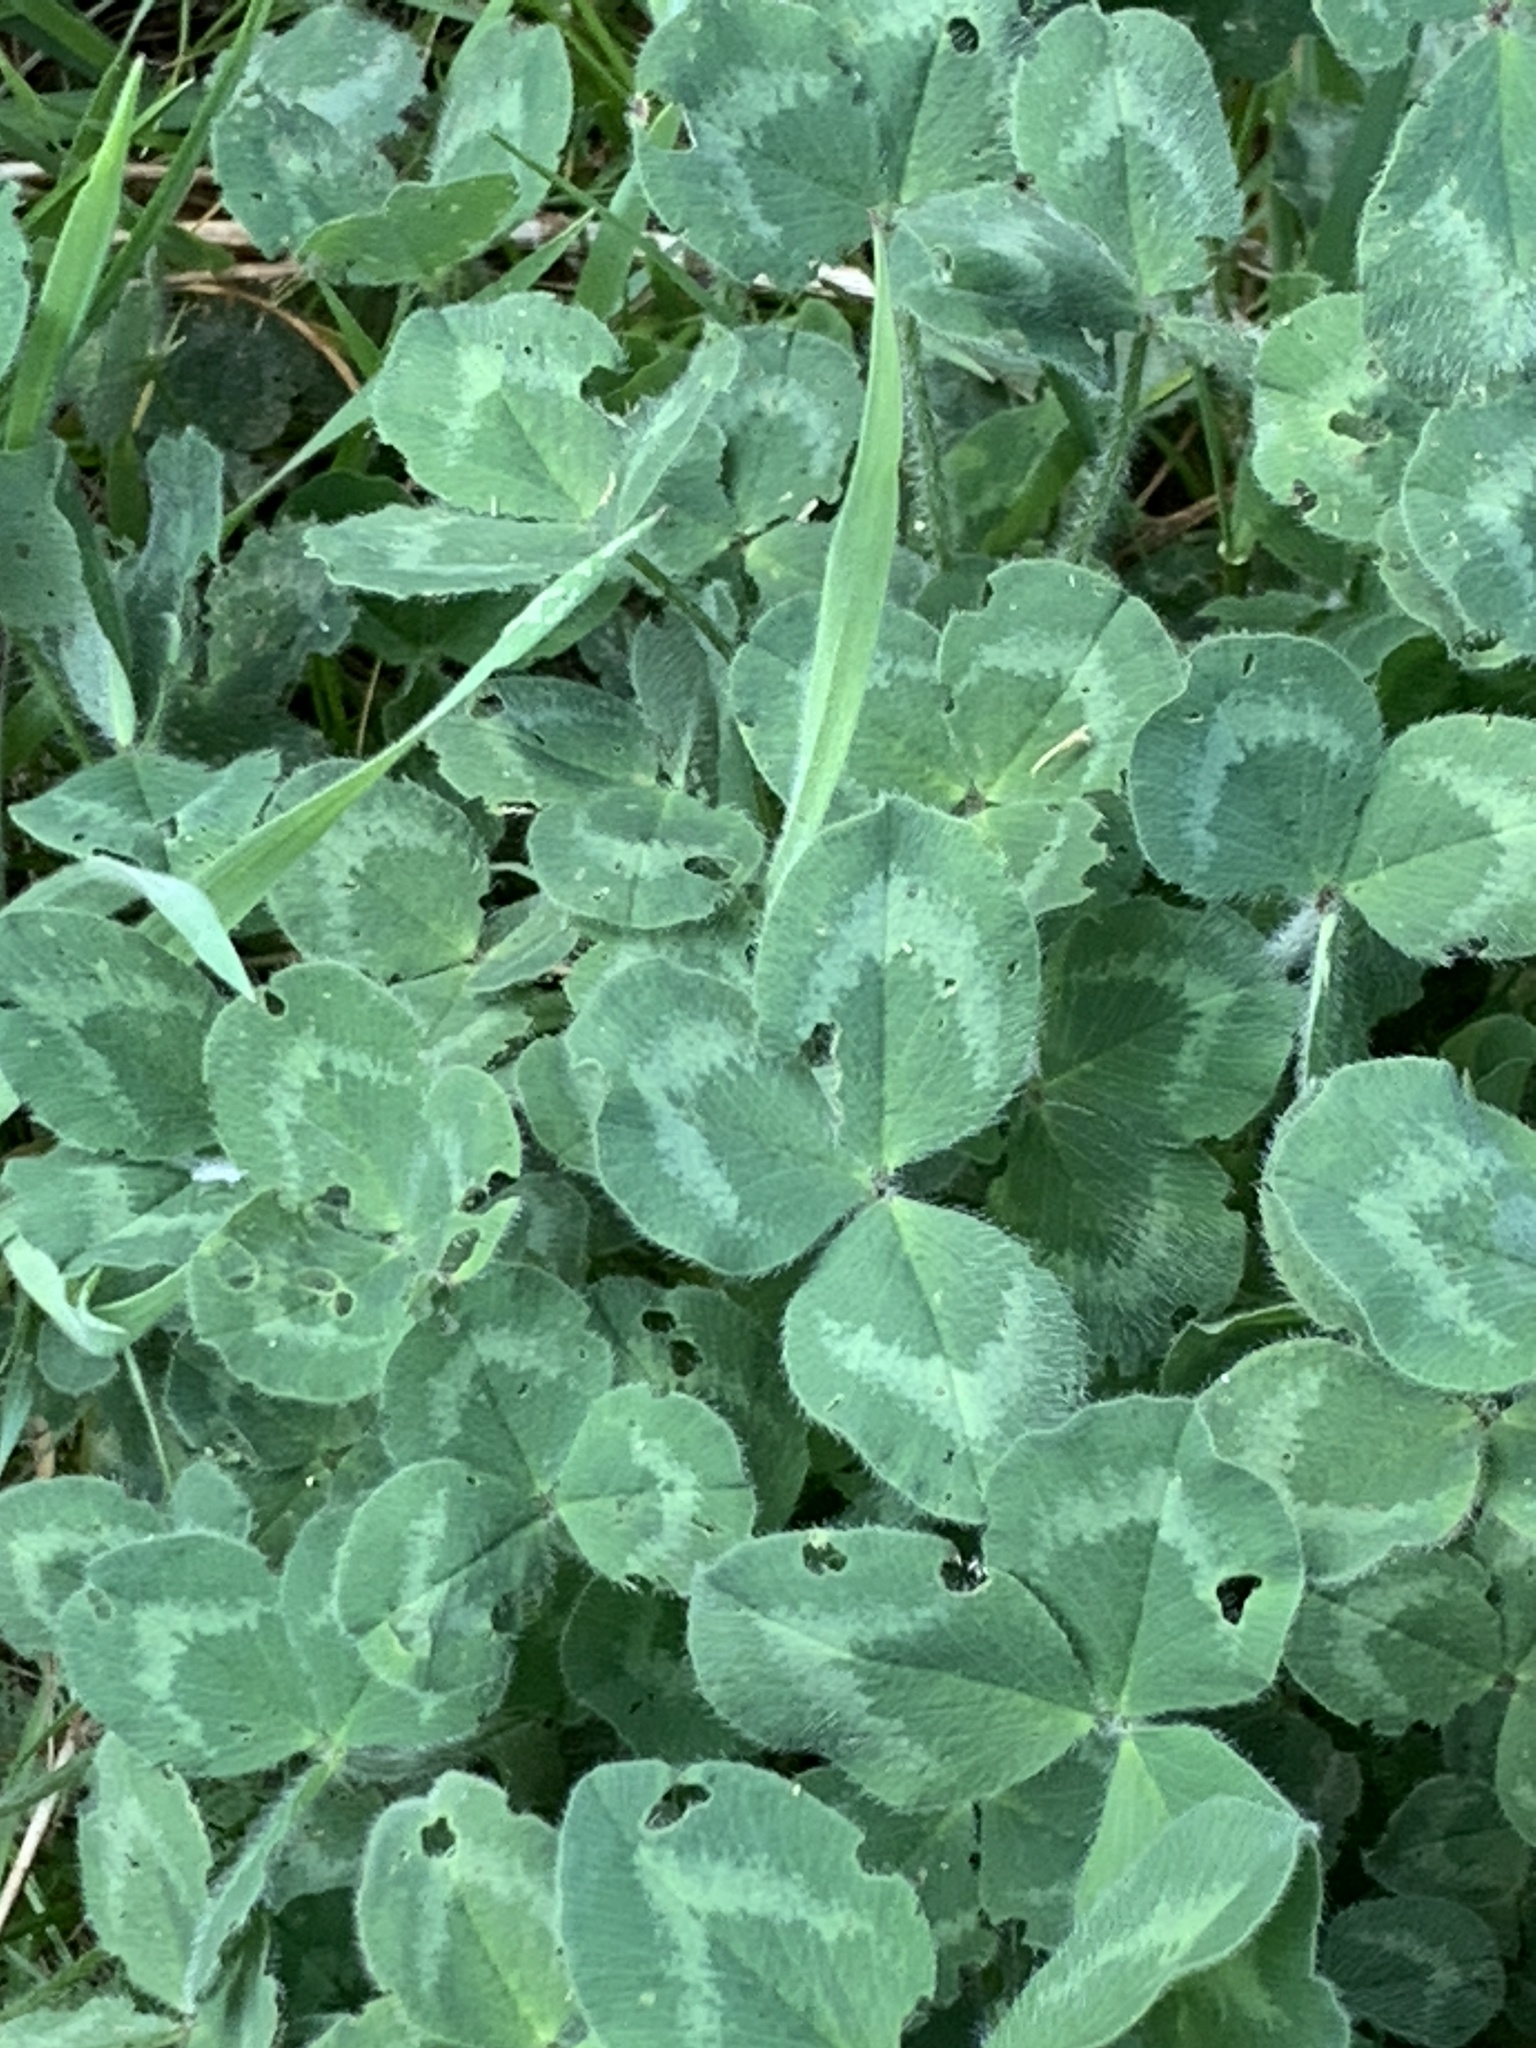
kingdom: Plantae
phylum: Tracheophyta
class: Magnoliopsida
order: Fabales
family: Fabaceae
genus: Trifolium
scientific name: Trifolium pratense
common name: Red clover
